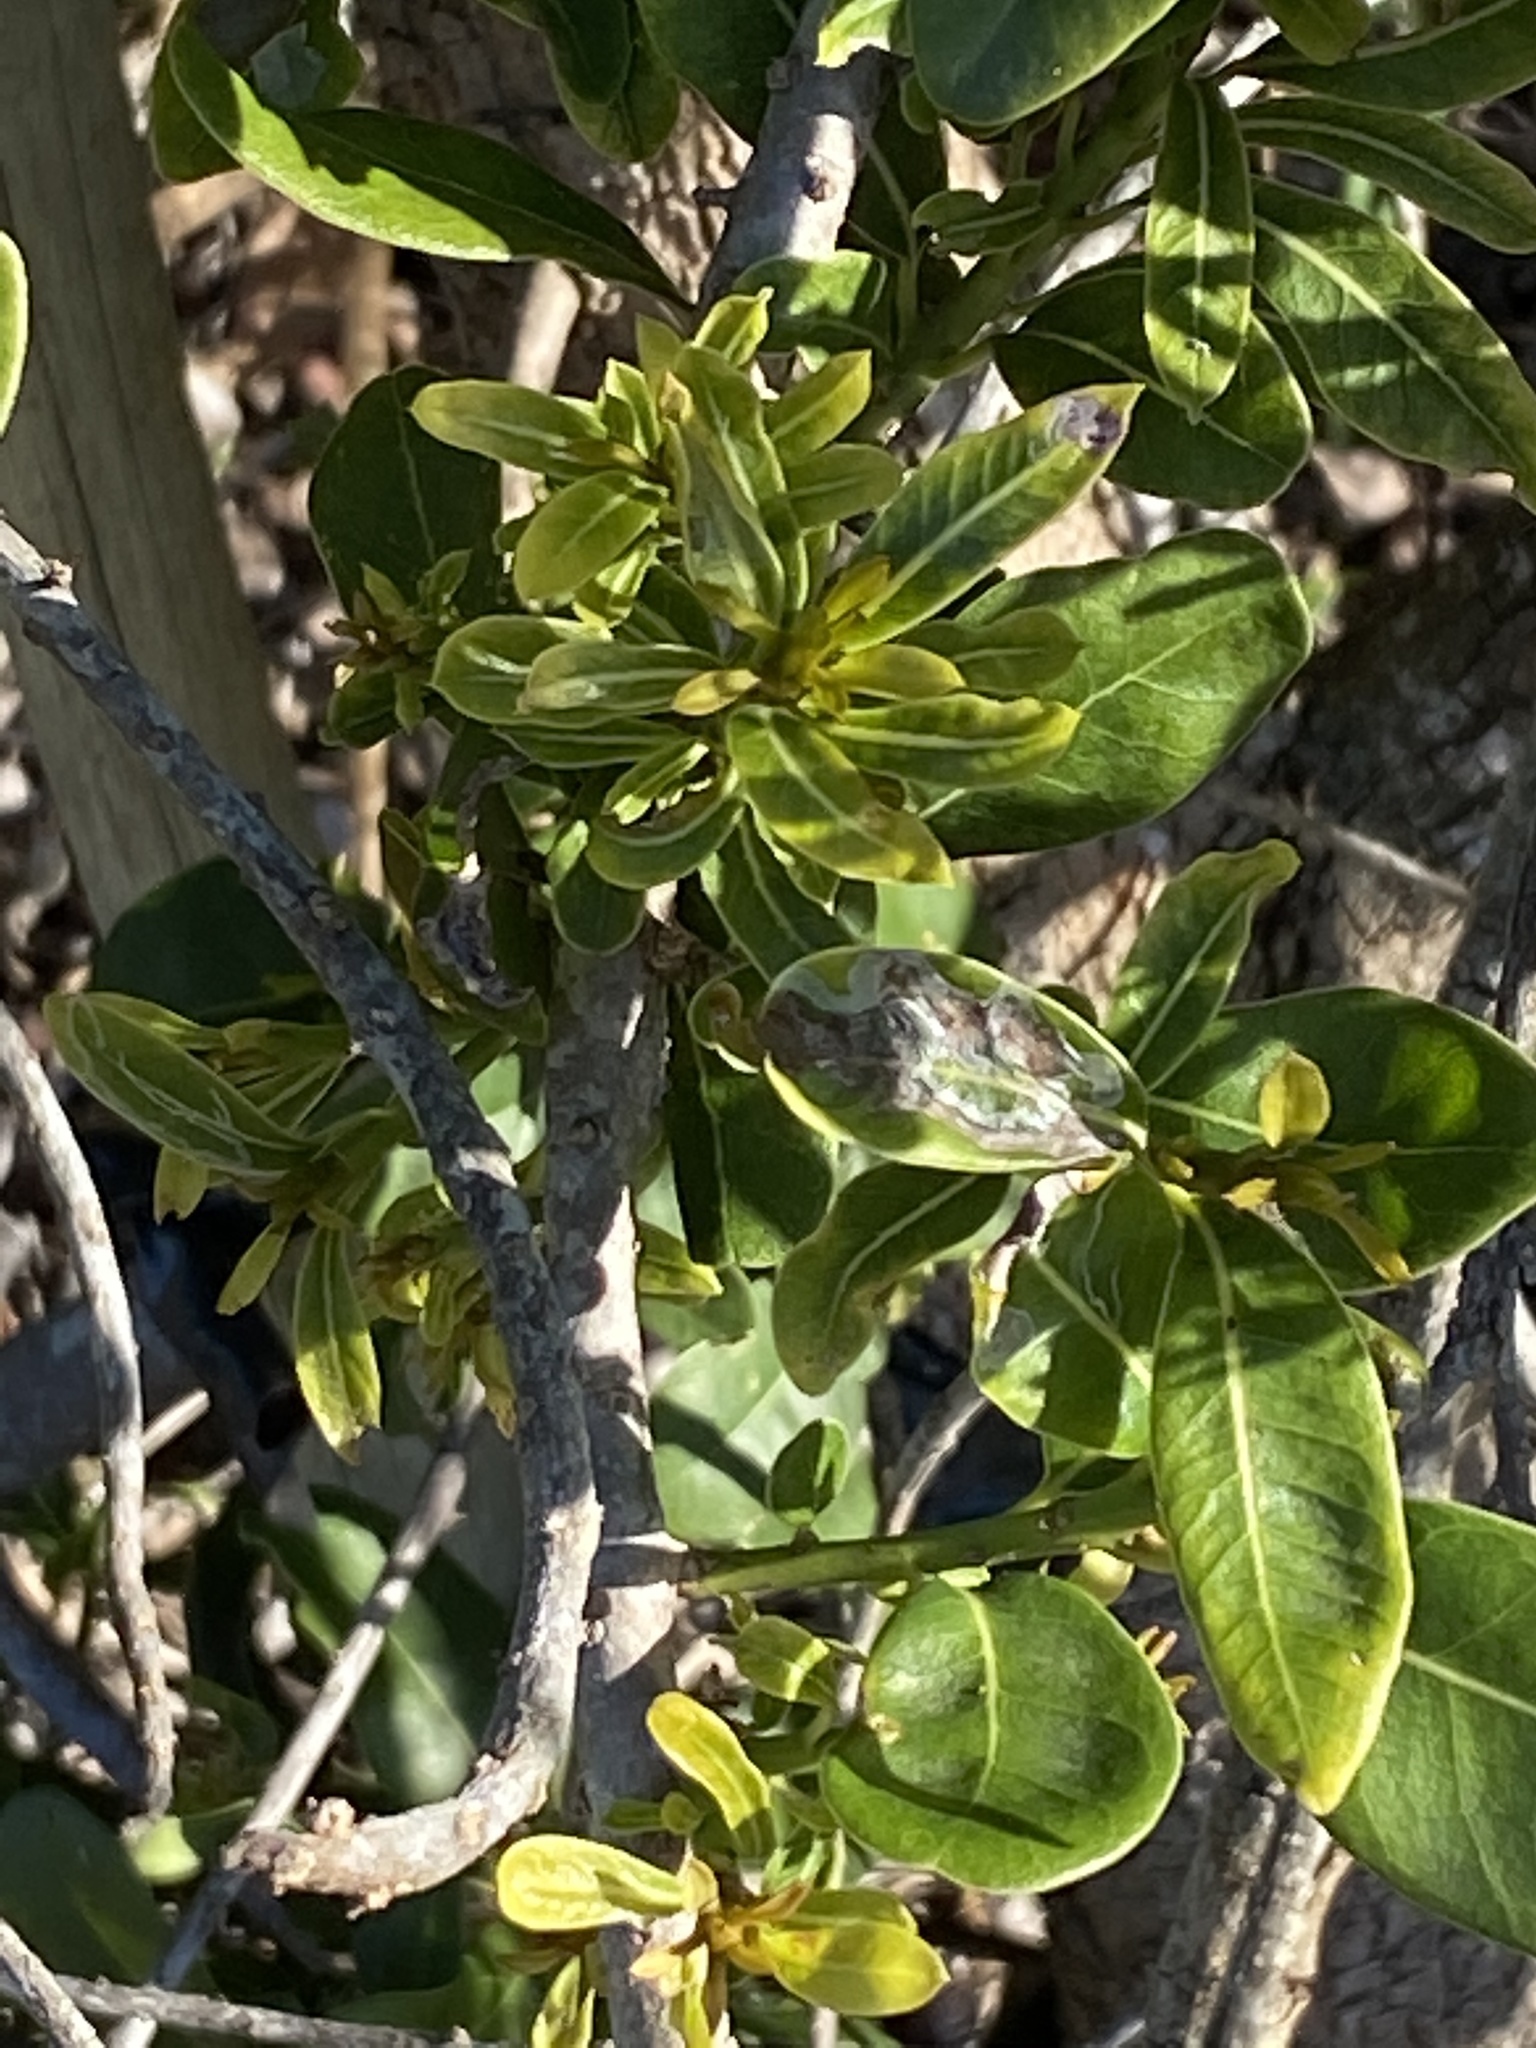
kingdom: Plantae
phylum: Tracheophyta
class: Magnoliopsida
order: Apiales
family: Pittosporaceae
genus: Pittosporum
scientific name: Pittosporum viridiflorum
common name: Cape cheesewood
